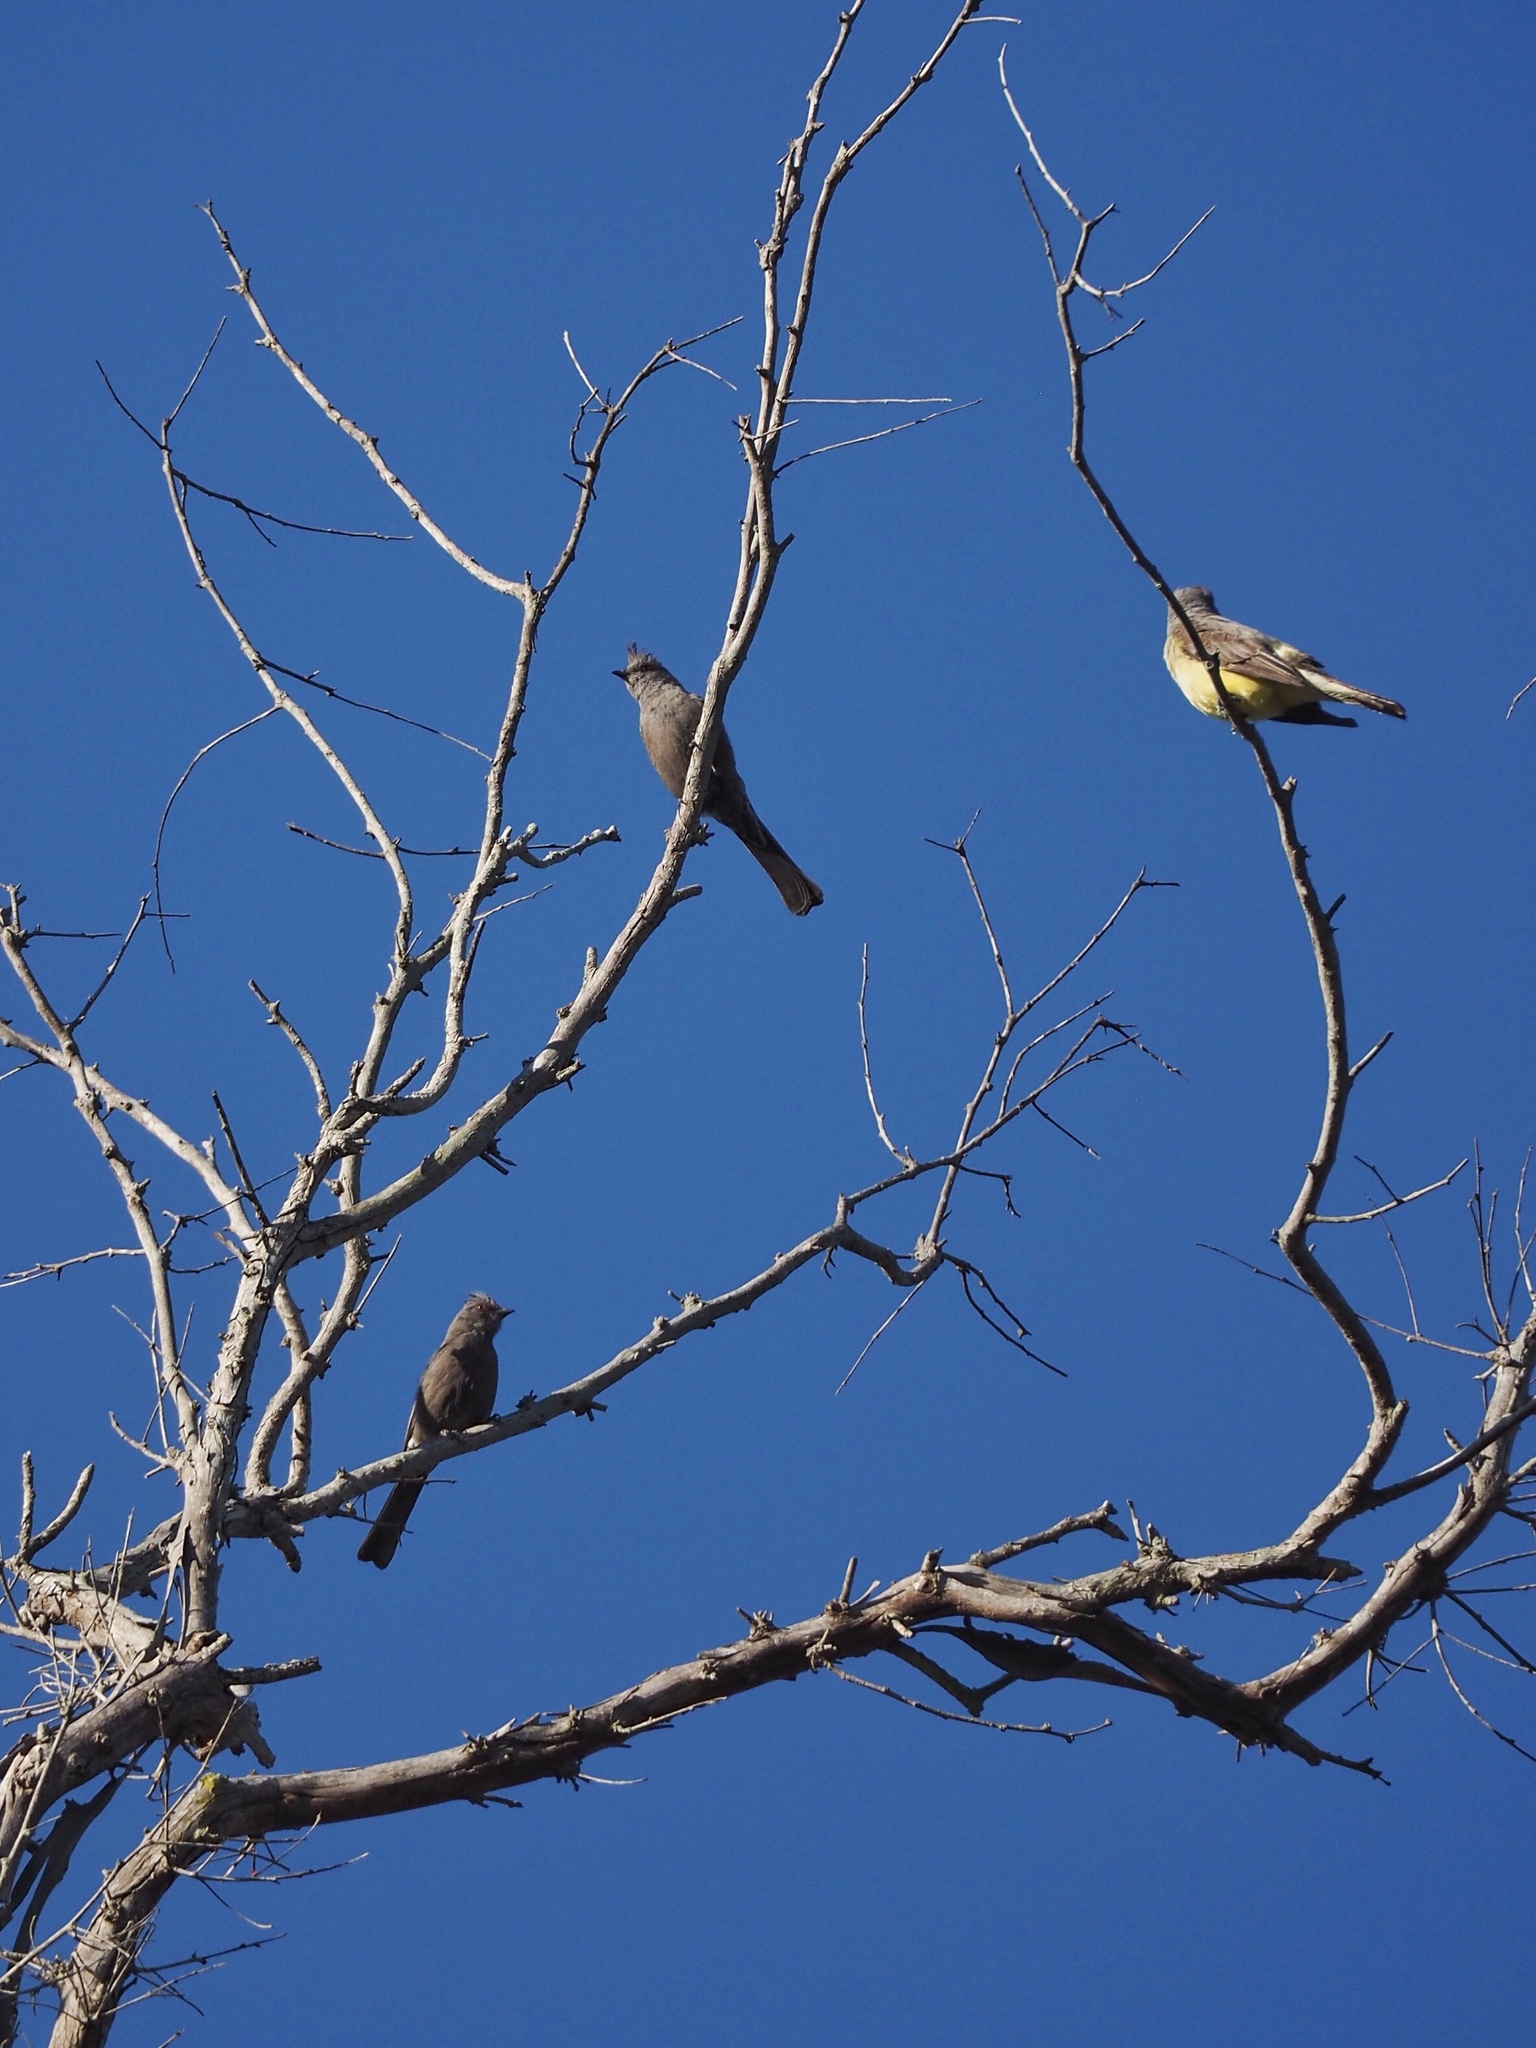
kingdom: Animalia
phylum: Chordata
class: Aves
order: Passeriformes
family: Ptilogonatidae
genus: Phainopepla
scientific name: Phainopepla nitens
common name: Phainopepla
